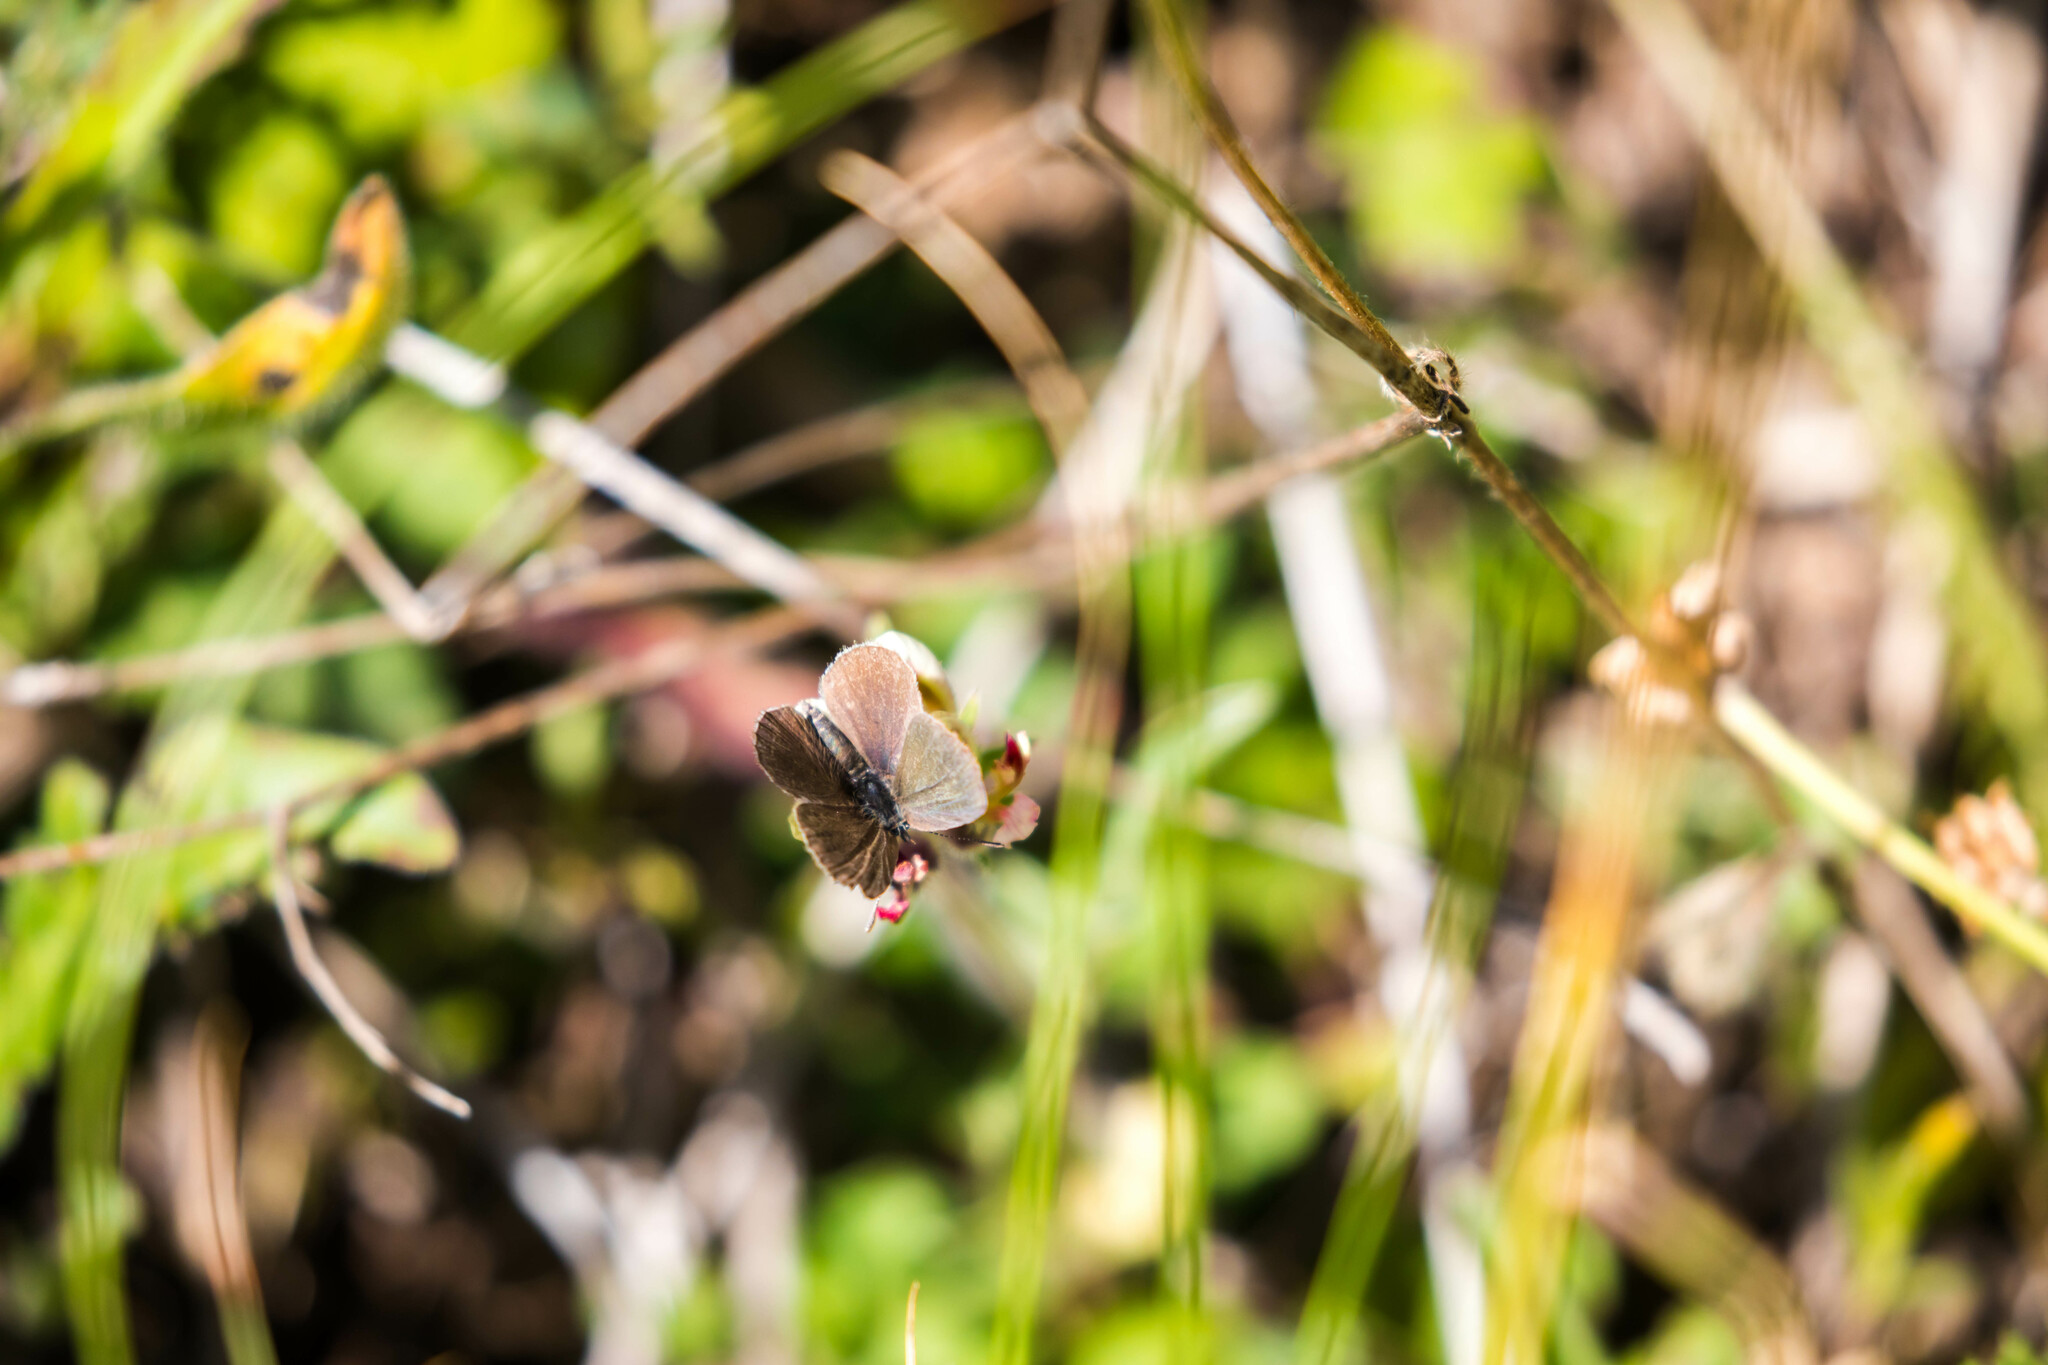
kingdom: Animalia
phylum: Arthropoda
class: Insecta
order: Lepidoptera
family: Lycaenidae
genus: Cupido
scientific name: Cupido minimus
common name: Small blue
